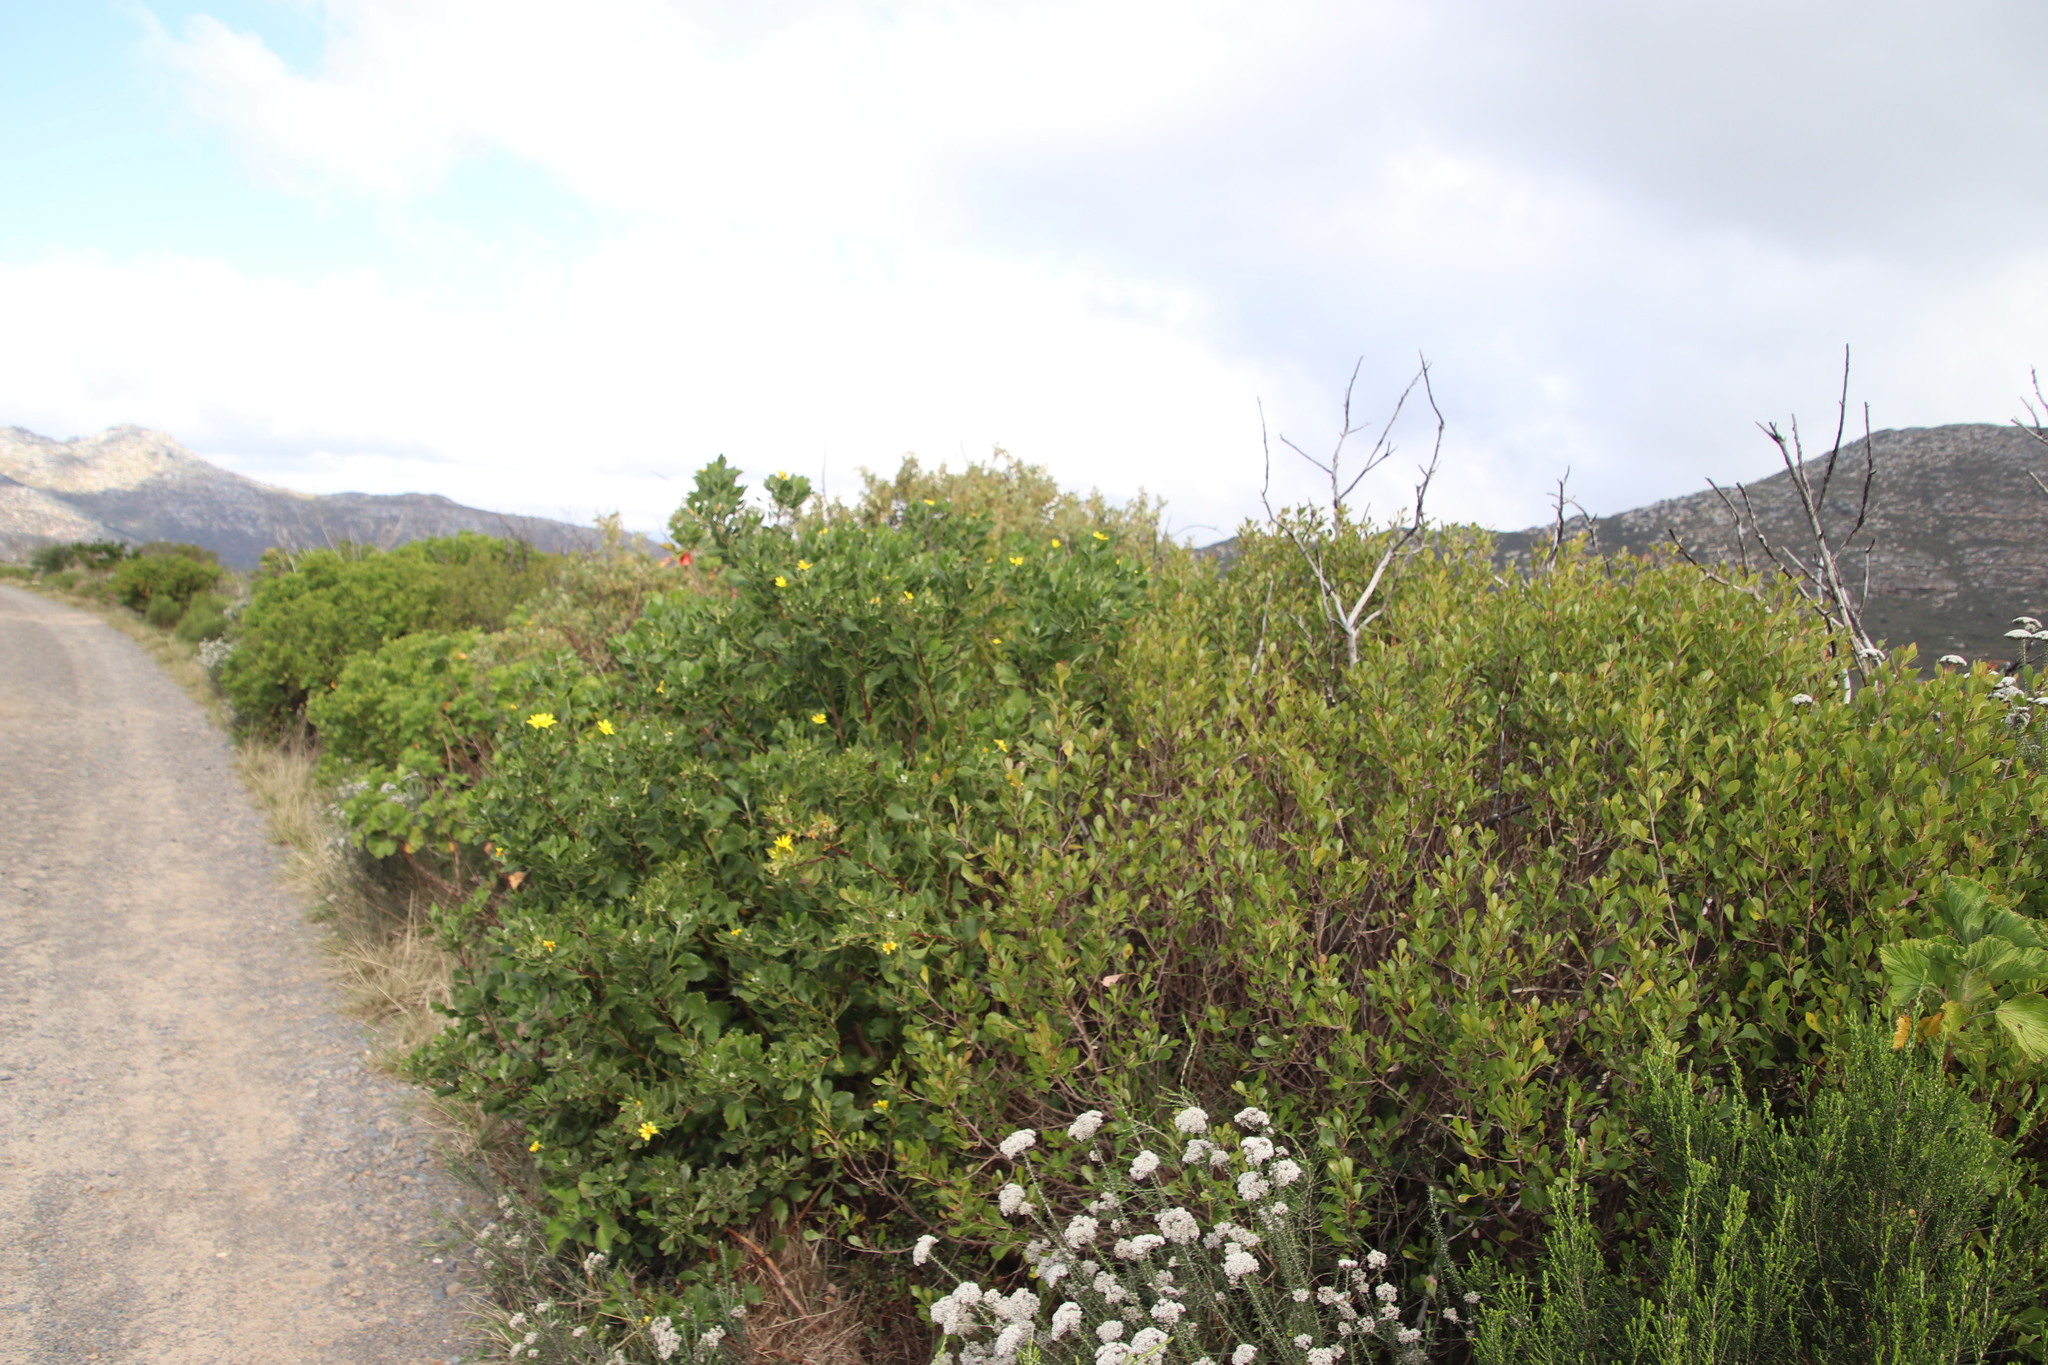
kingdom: Plantae
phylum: Tracheophyta
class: Magnoliopsida
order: Asterales
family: Asteraceae
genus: Osteospermum
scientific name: Osteospermum moniliferum
